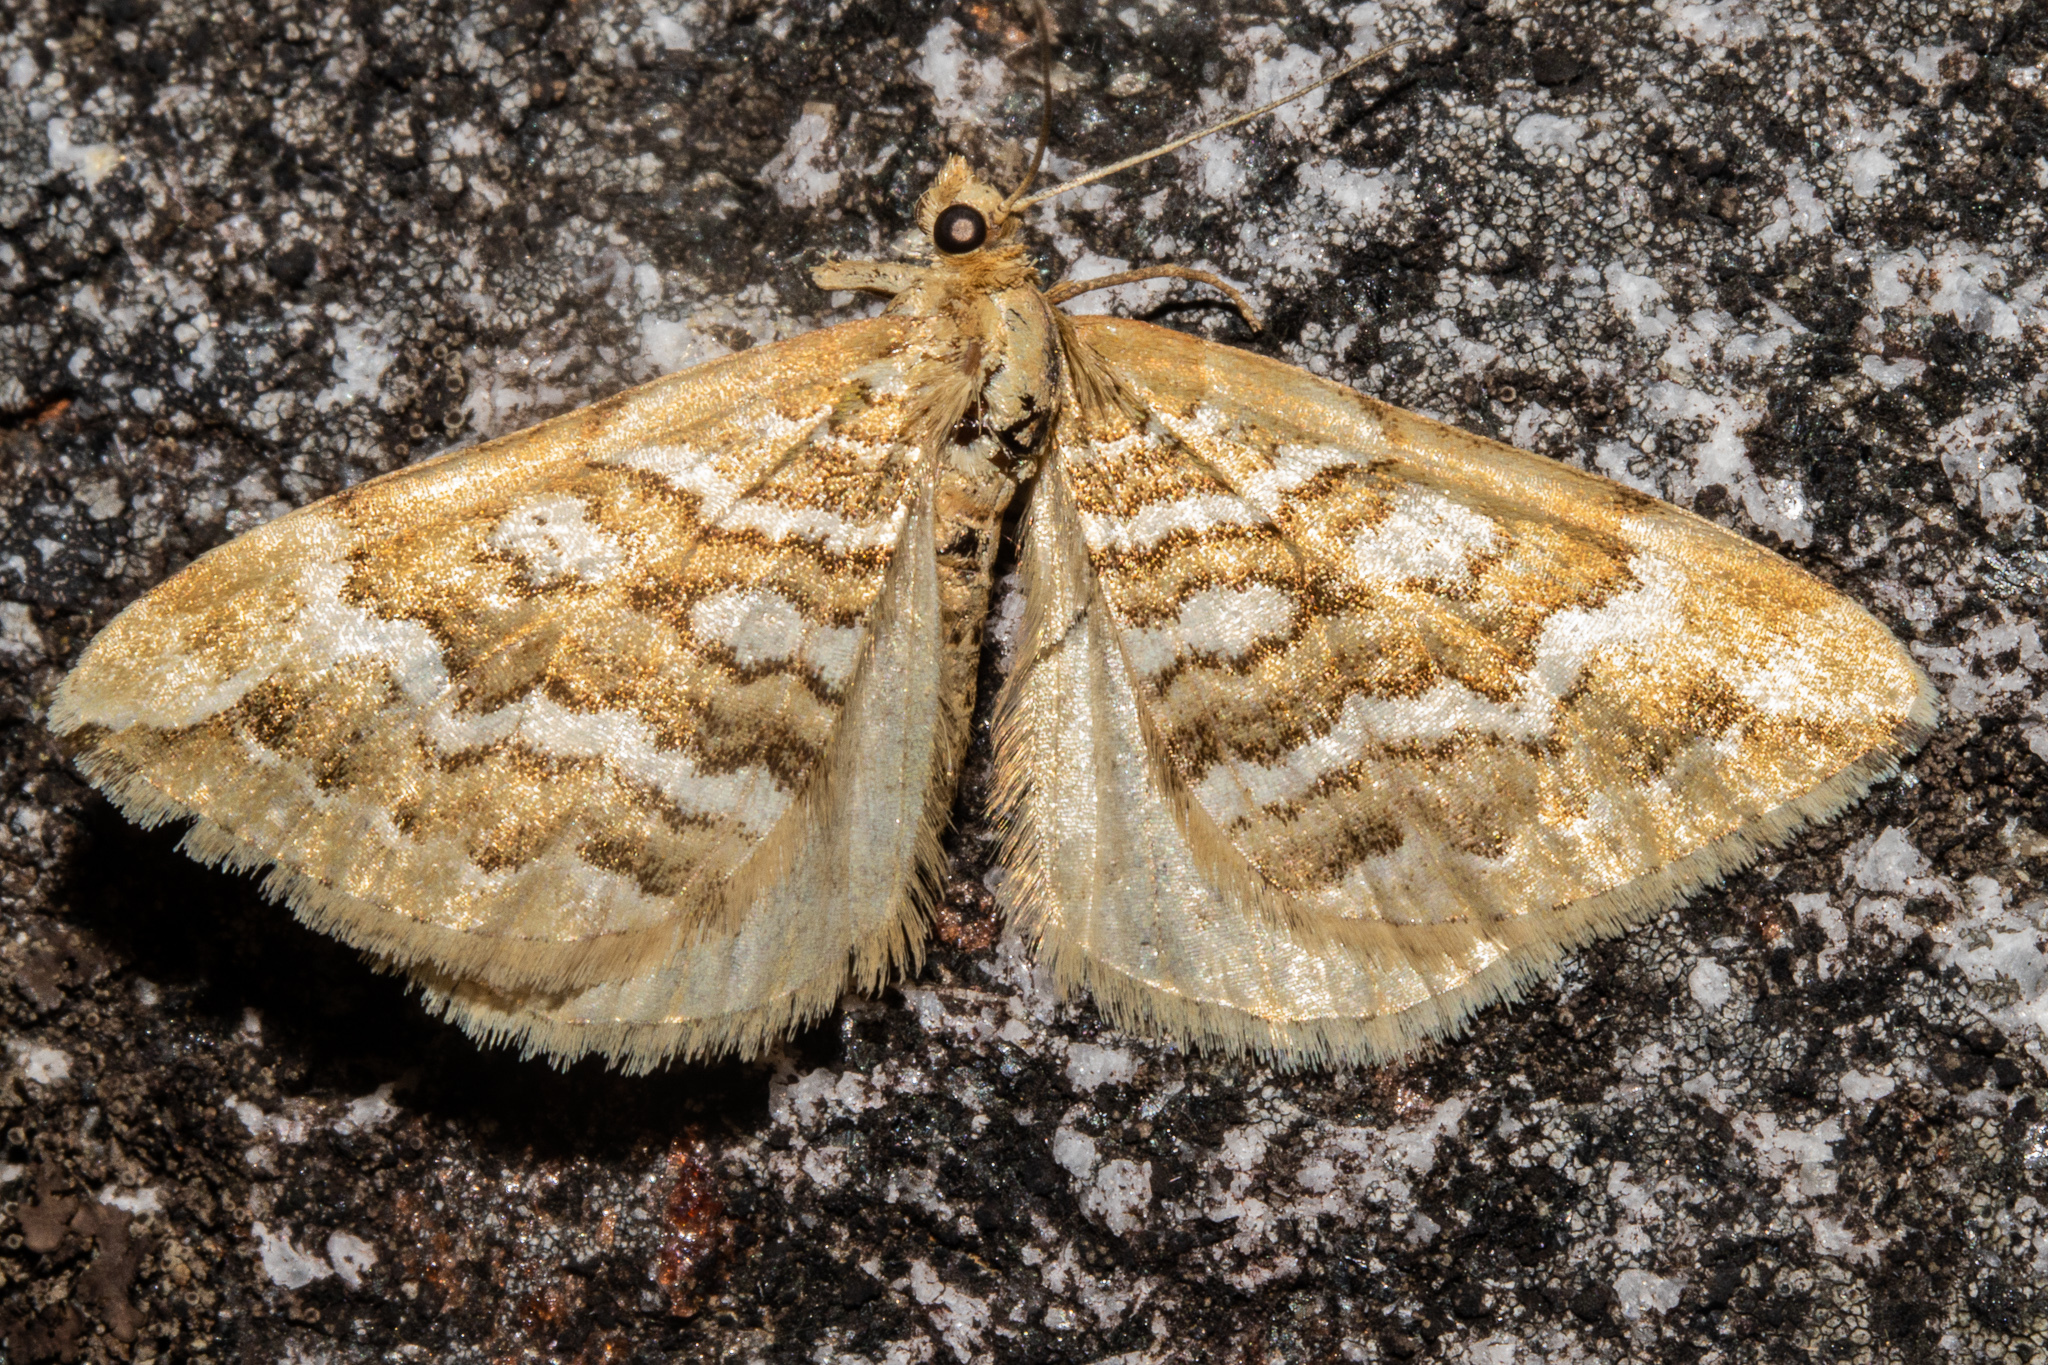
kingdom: Animalia
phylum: Arthropoda
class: Insecta
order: Lepidoptera
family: Geometridae
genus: Asaphodes
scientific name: Asaphodes cataphracta
